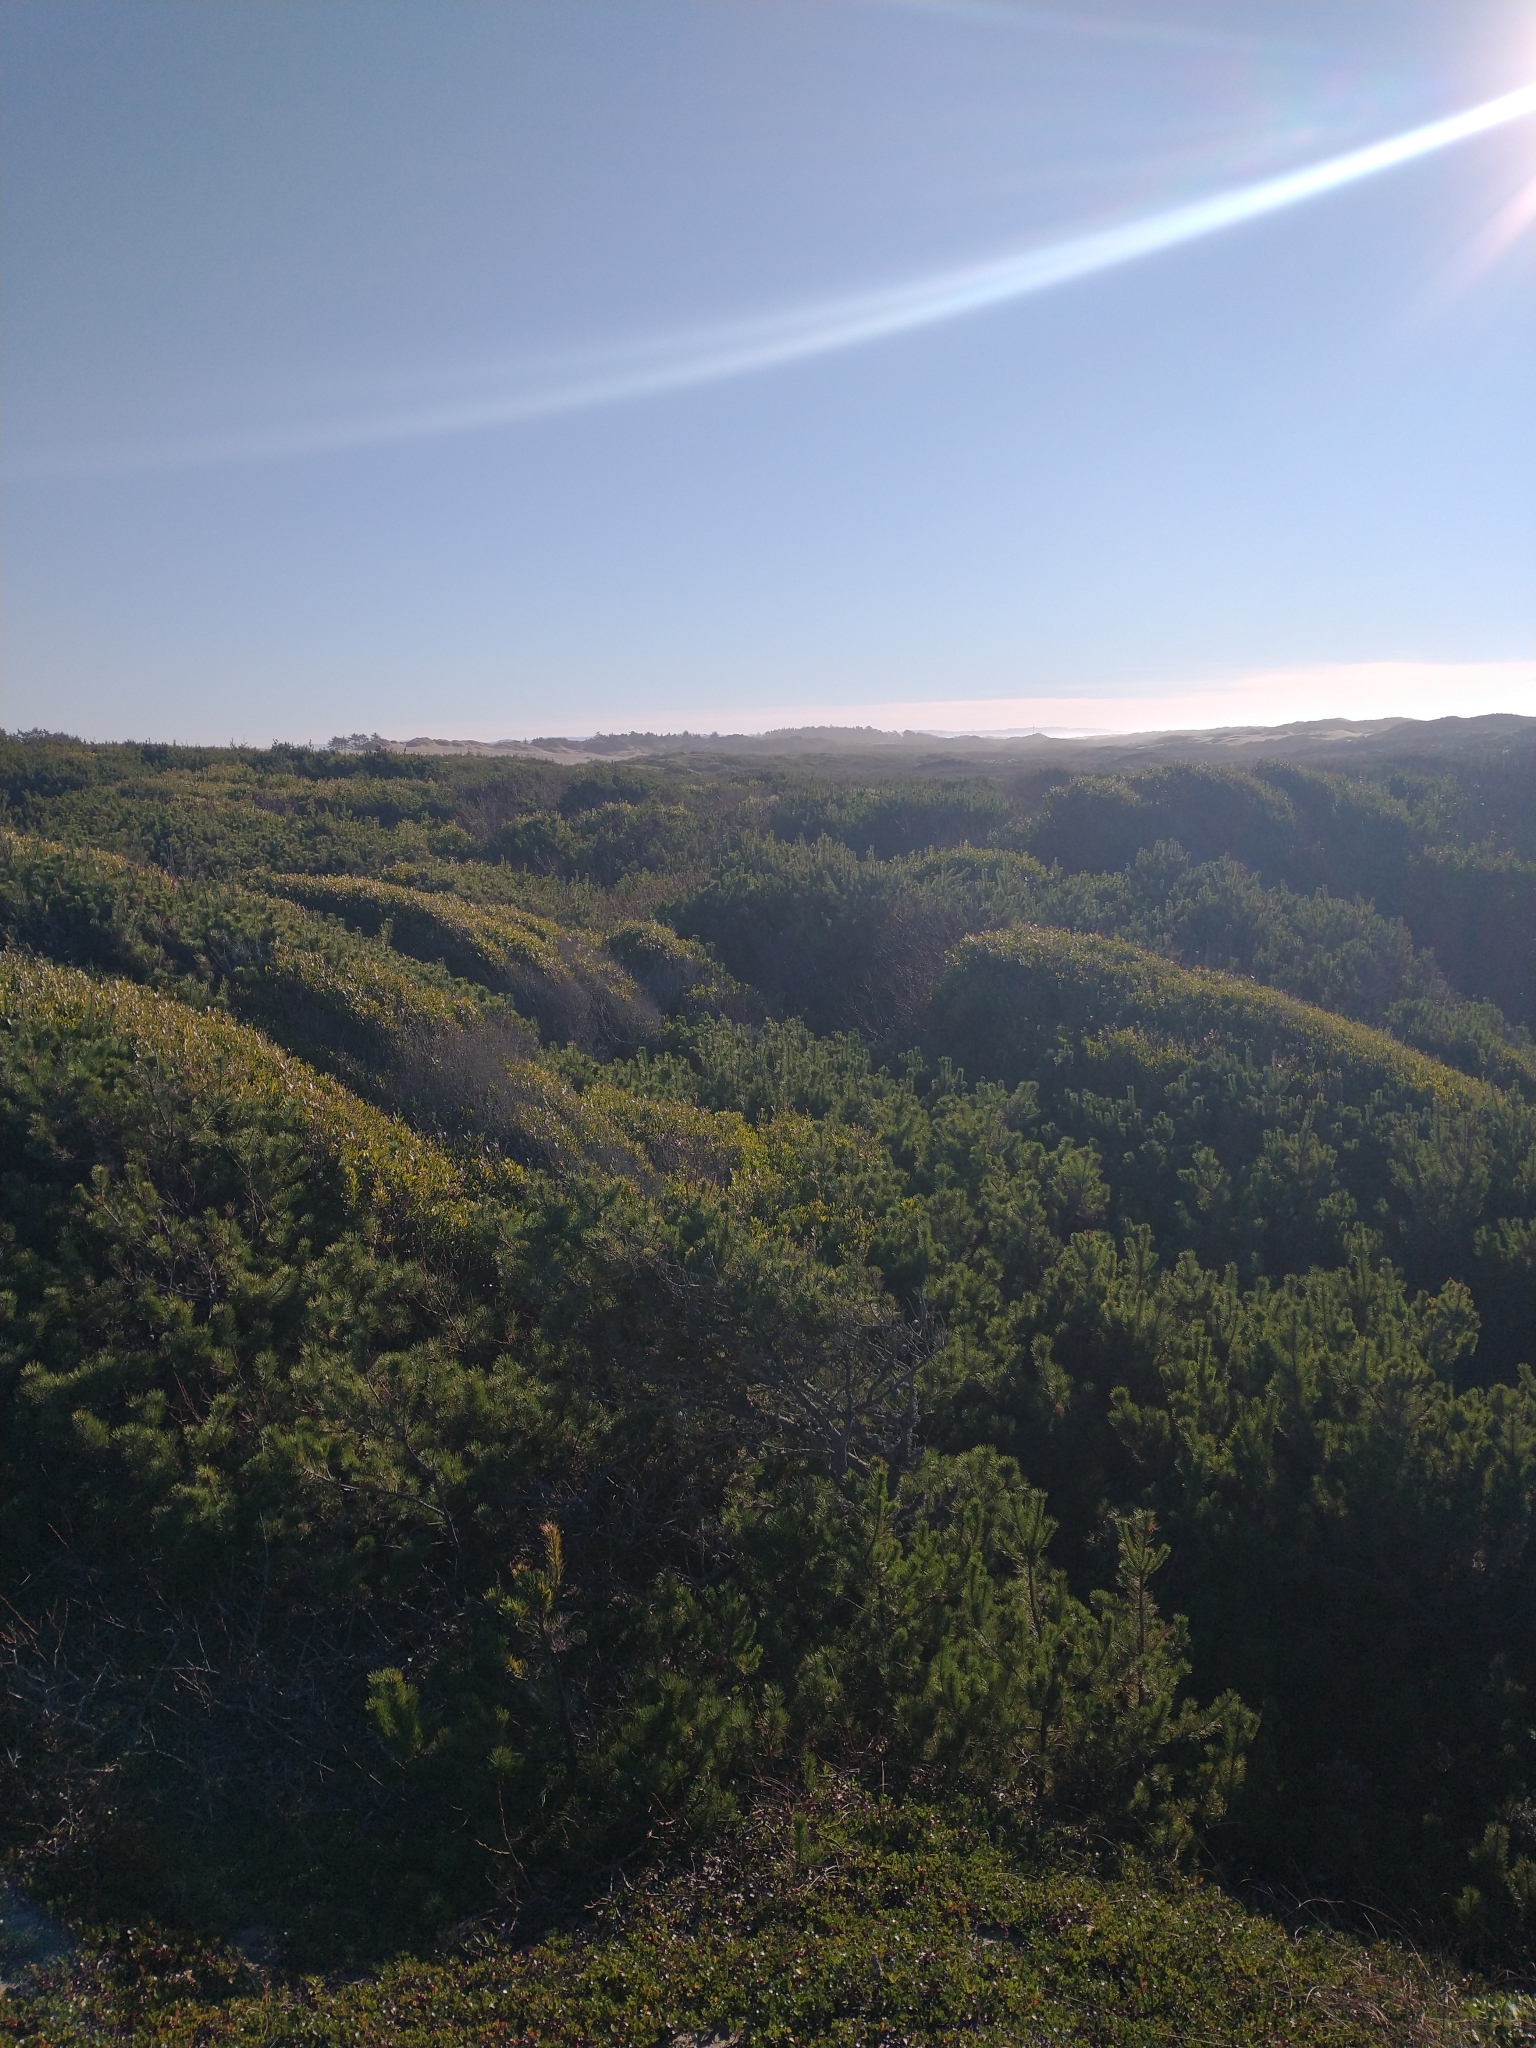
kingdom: Plantae
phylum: Tracheophyta
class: Pinopsida
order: Pinales
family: Pinaceae
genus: Pinus
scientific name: Pinus contorta
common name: Lodgepole pine
